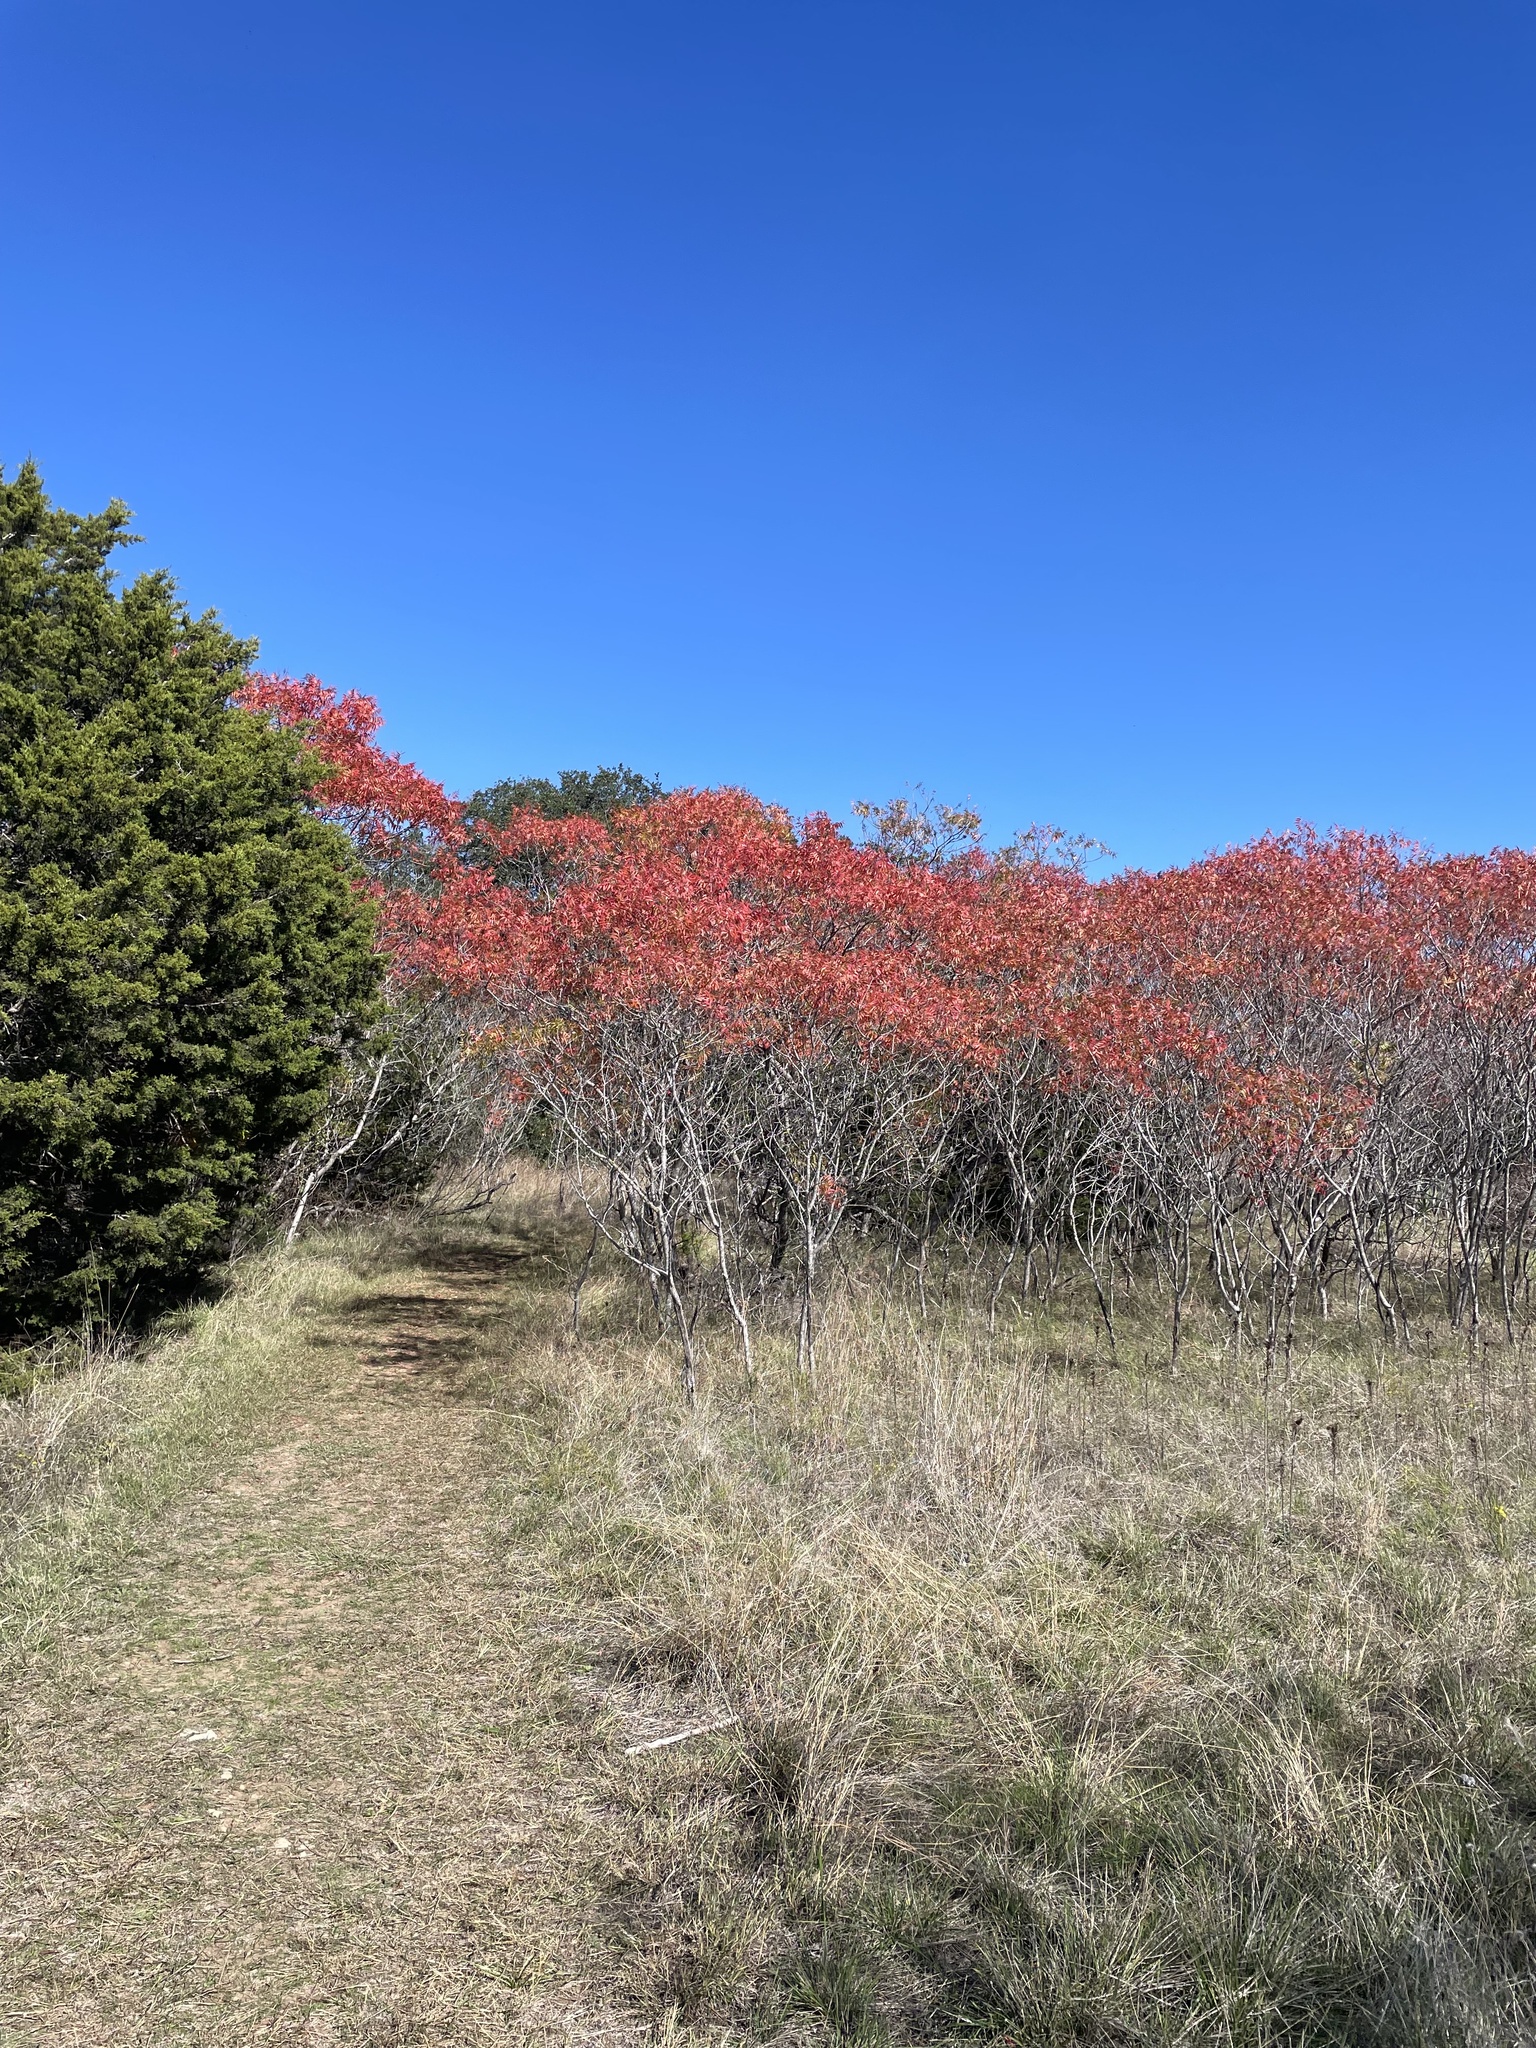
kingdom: Plantae
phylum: Tracheophyta
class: Magnoliopsida
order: Sapindales
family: Anacardiaceae
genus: Rhus
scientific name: Rhus lanceolata
